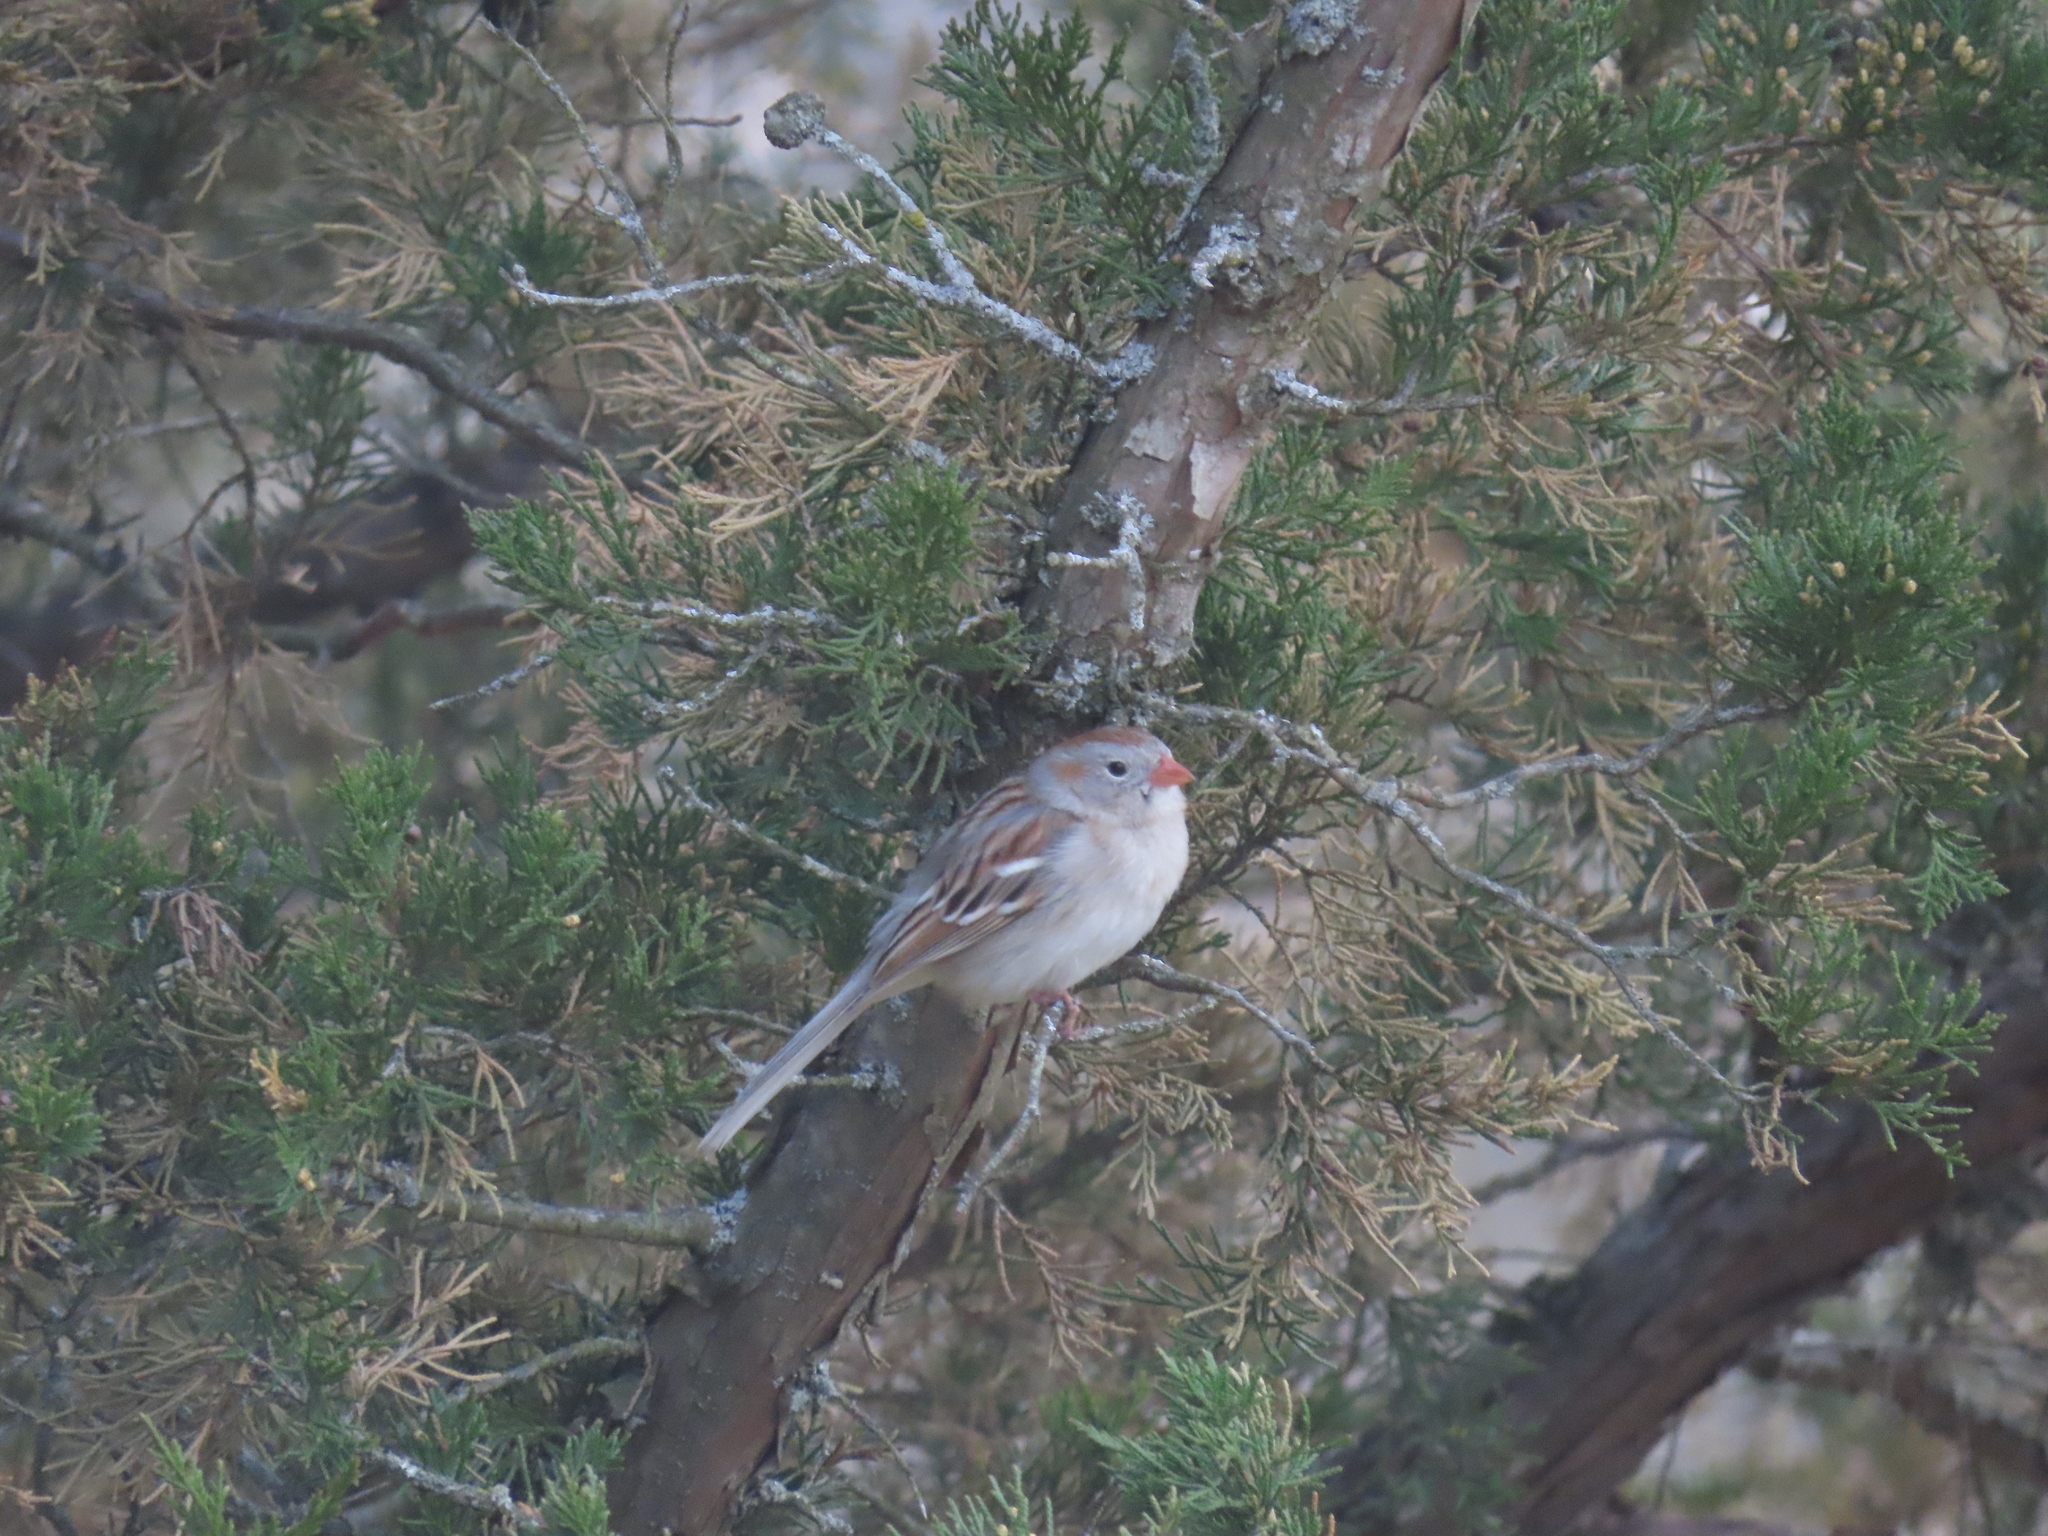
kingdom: Animalia
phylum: Chordata
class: Aves
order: Passeriformes
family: Passerellidae
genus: Spizella
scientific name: Spizella pusilla
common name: Field sparrow
